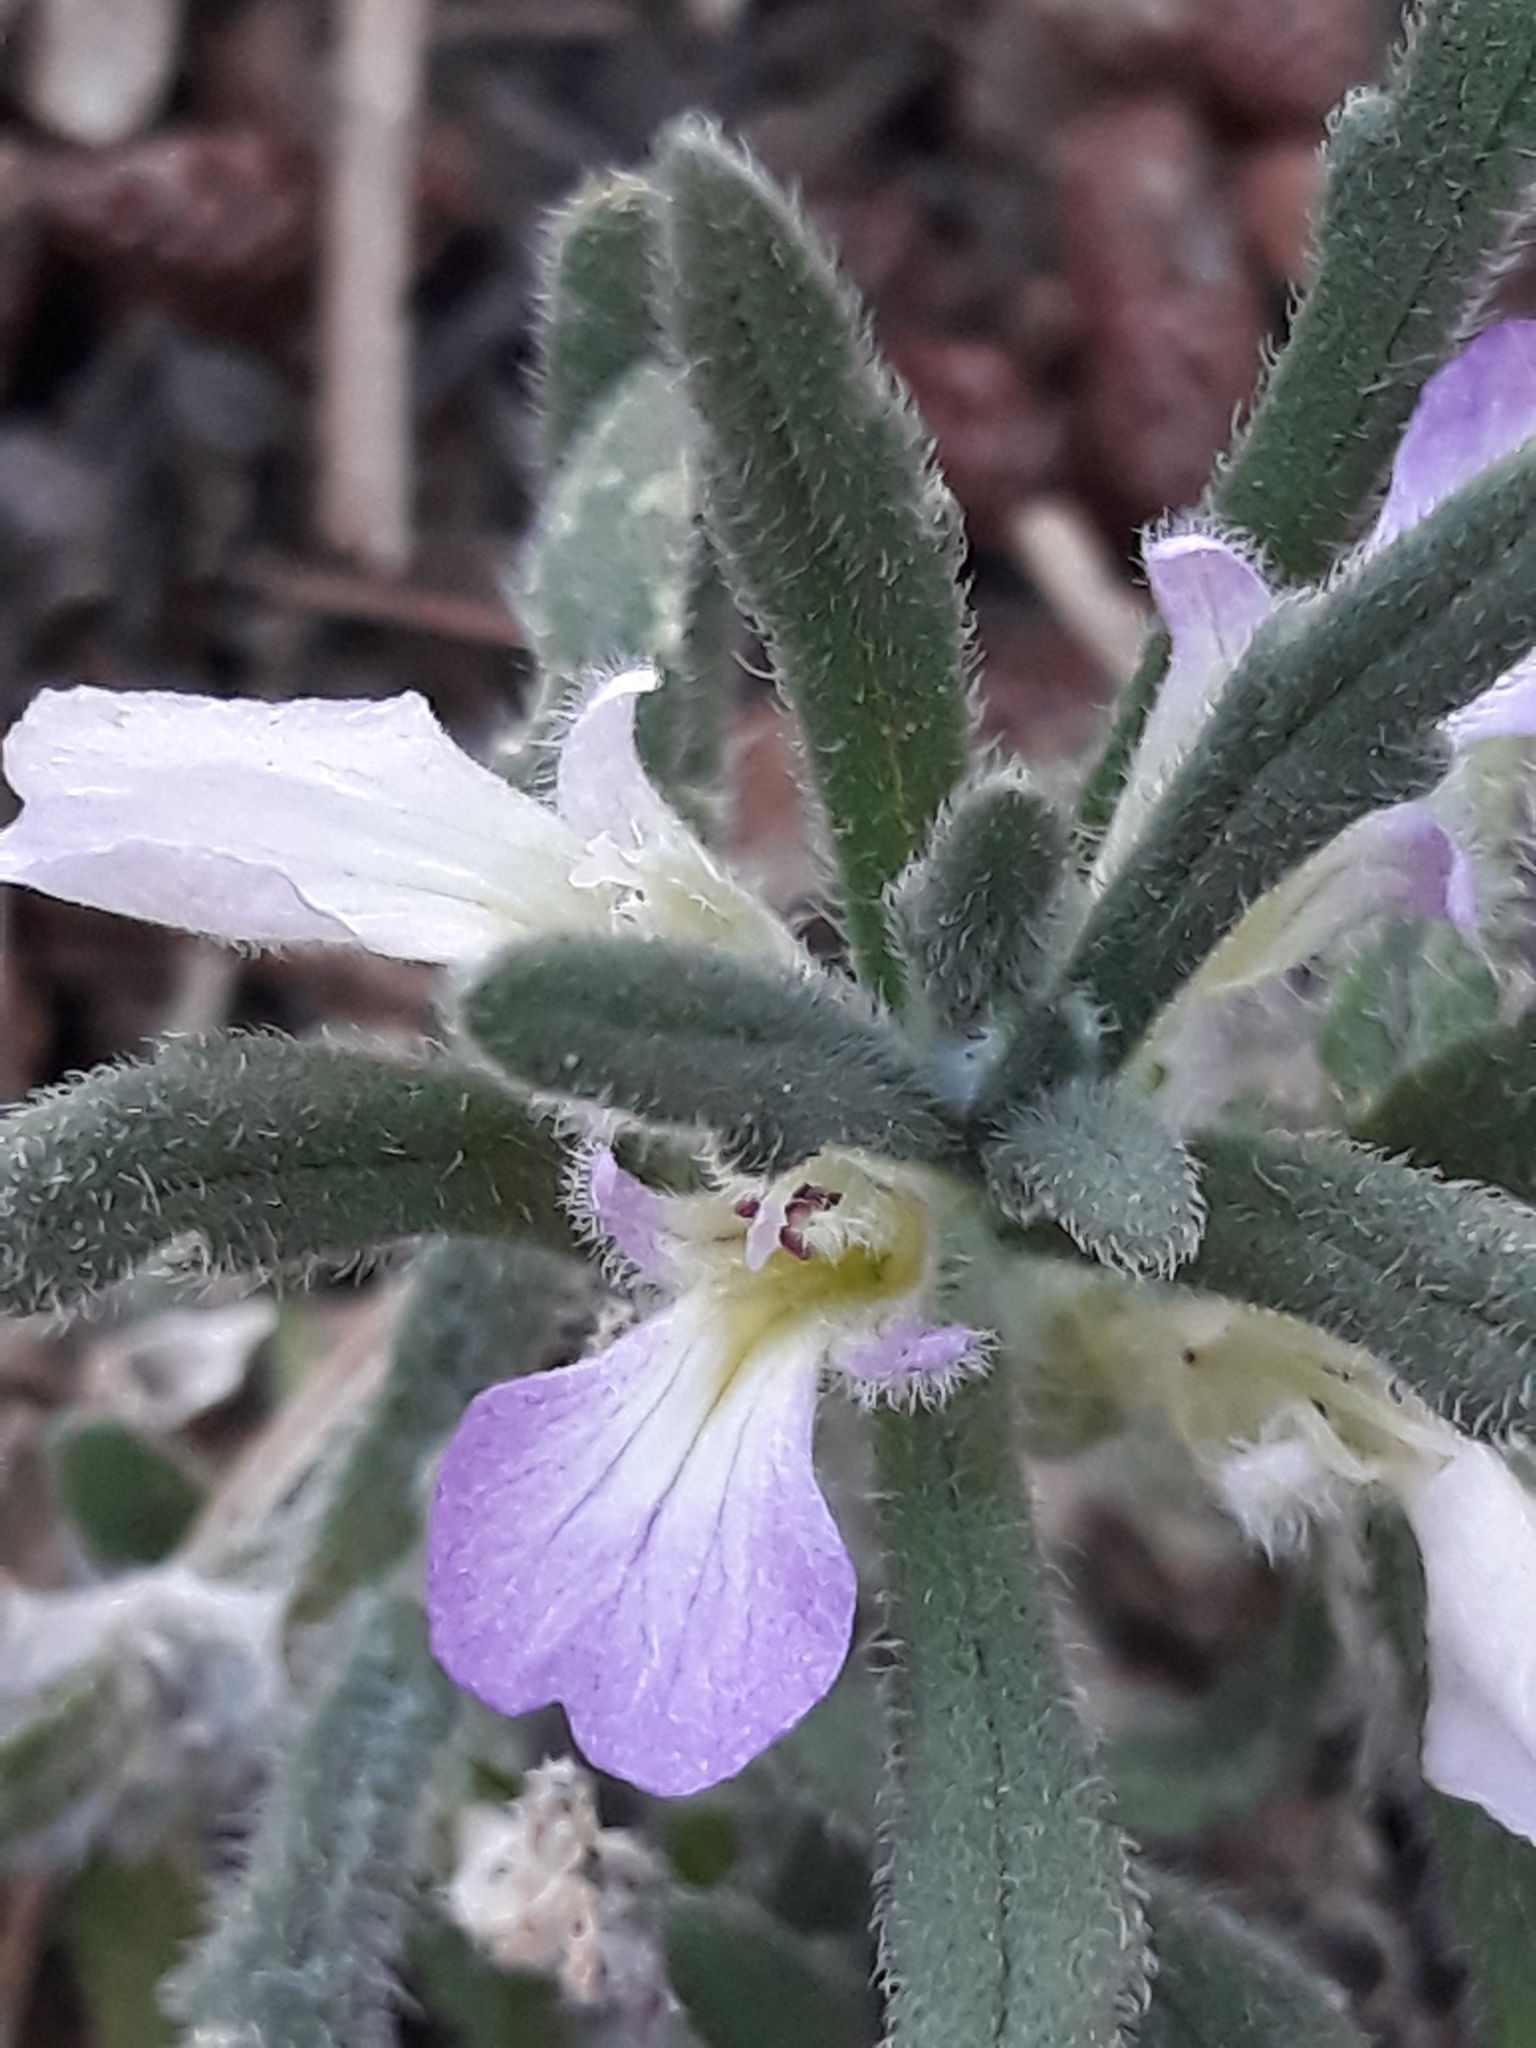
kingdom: Plantae
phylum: Tracheophyta
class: Magnoliopsida
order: Lamiales
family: Lamiaceae
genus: Ajuga
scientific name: Ajuga iva
